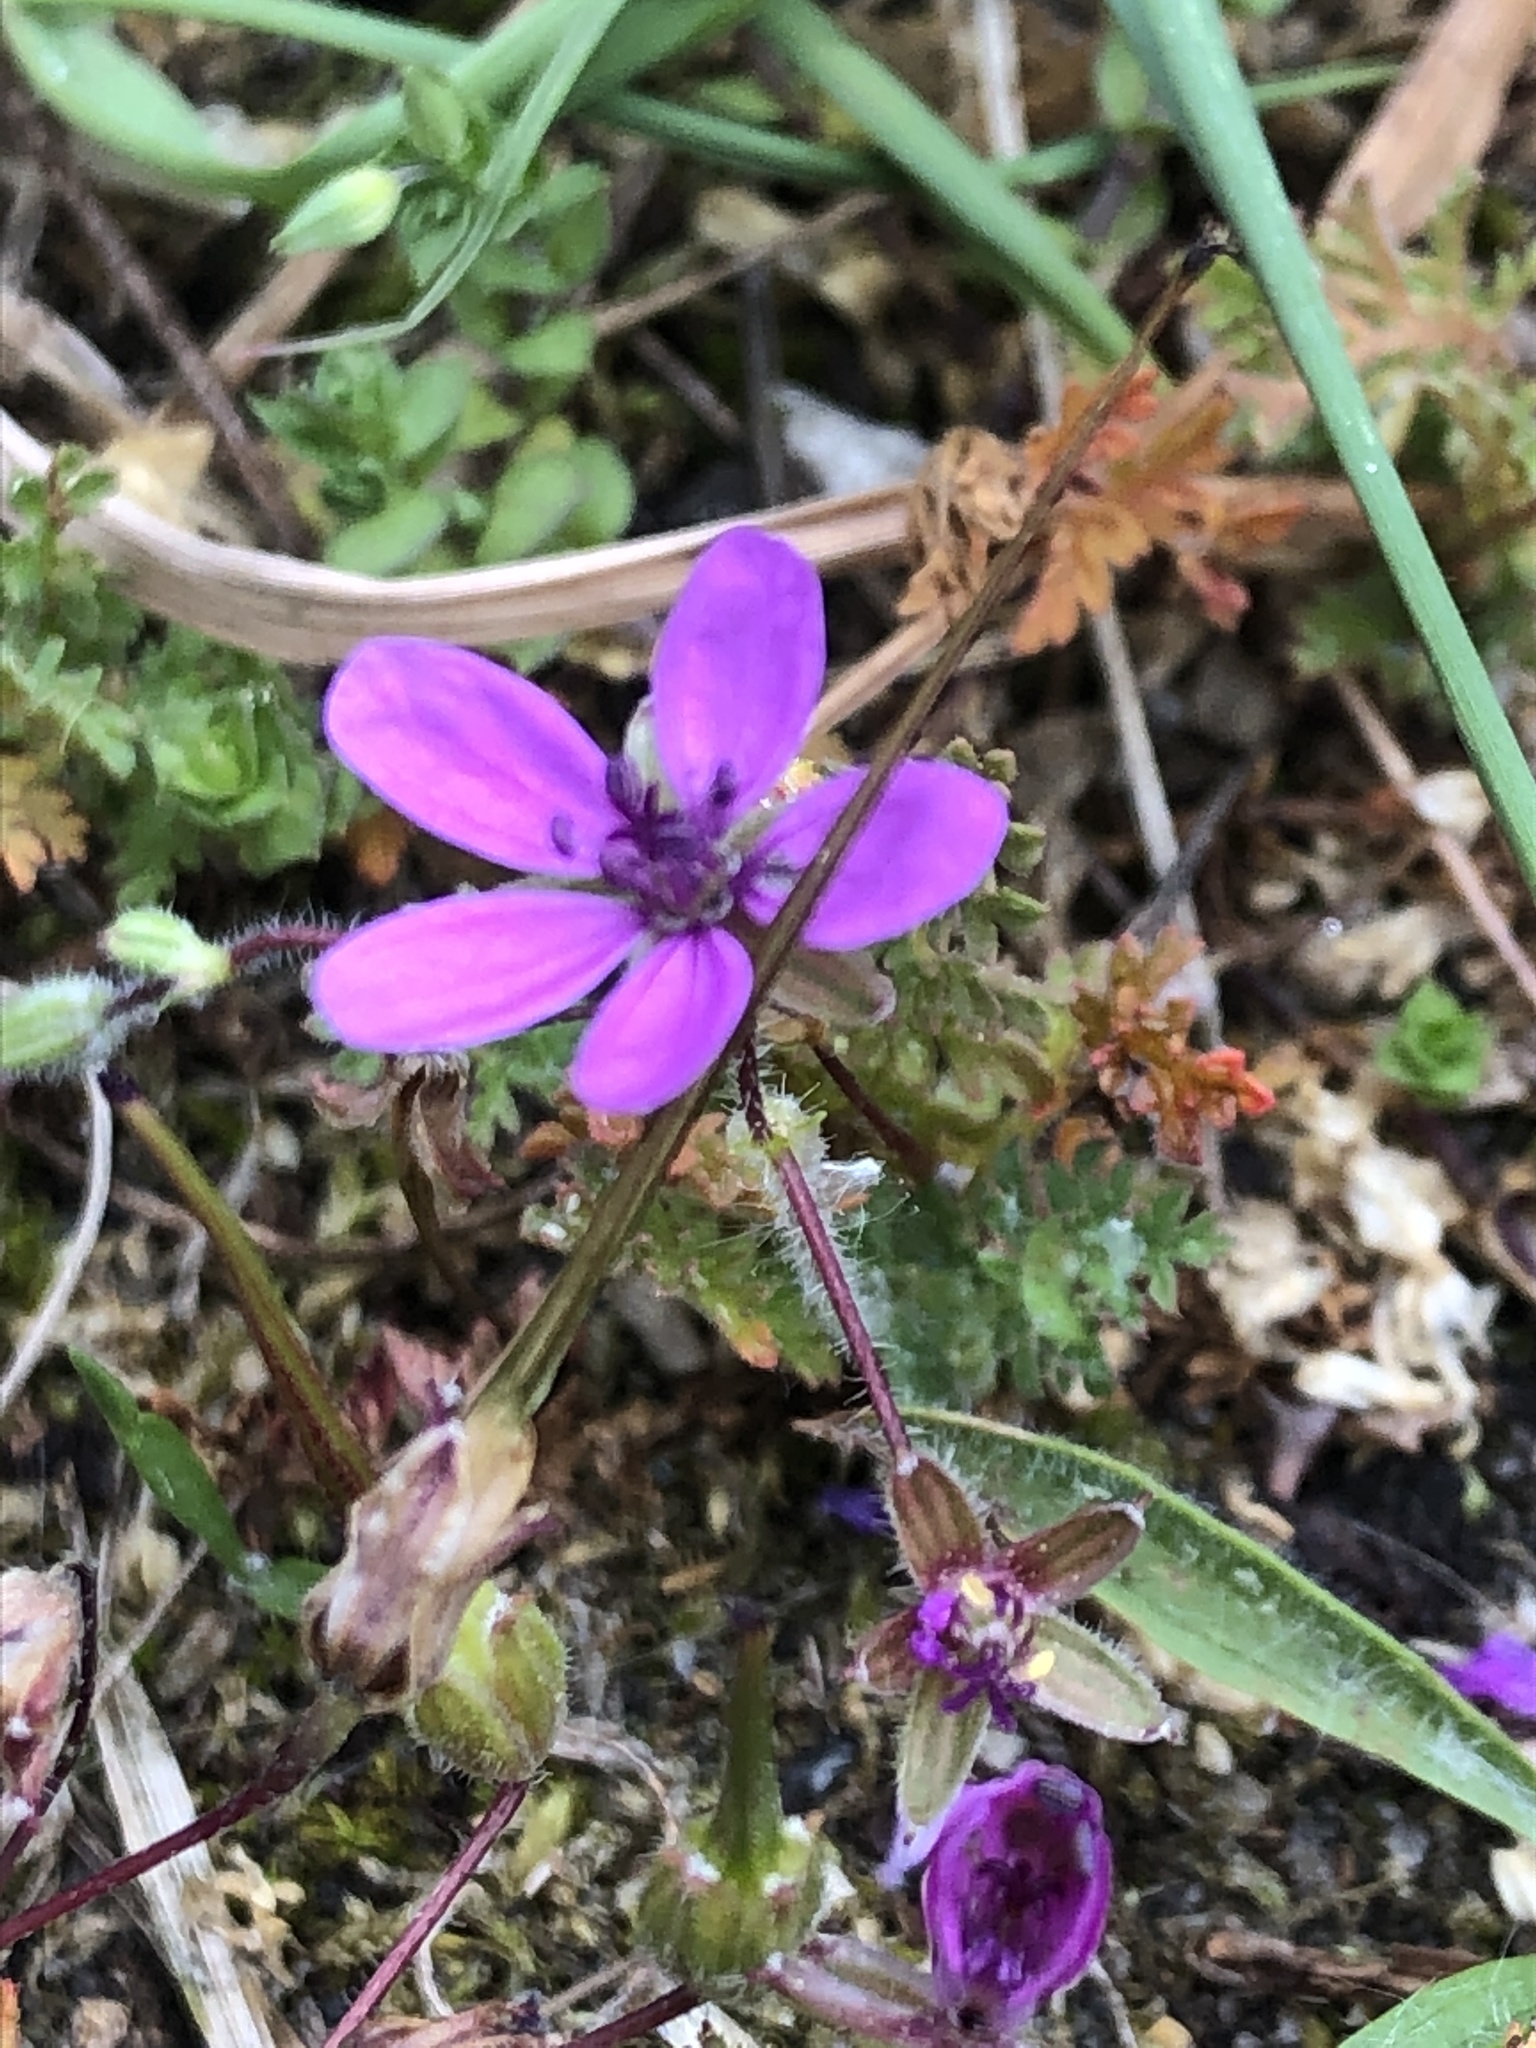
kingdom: Plantae
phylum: Tracheophyta
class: Magnoliopsida
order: Geraniales
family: Geraniaceae
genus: Erodium
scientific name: Erodium cicutarium
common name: Common stork's-bill
